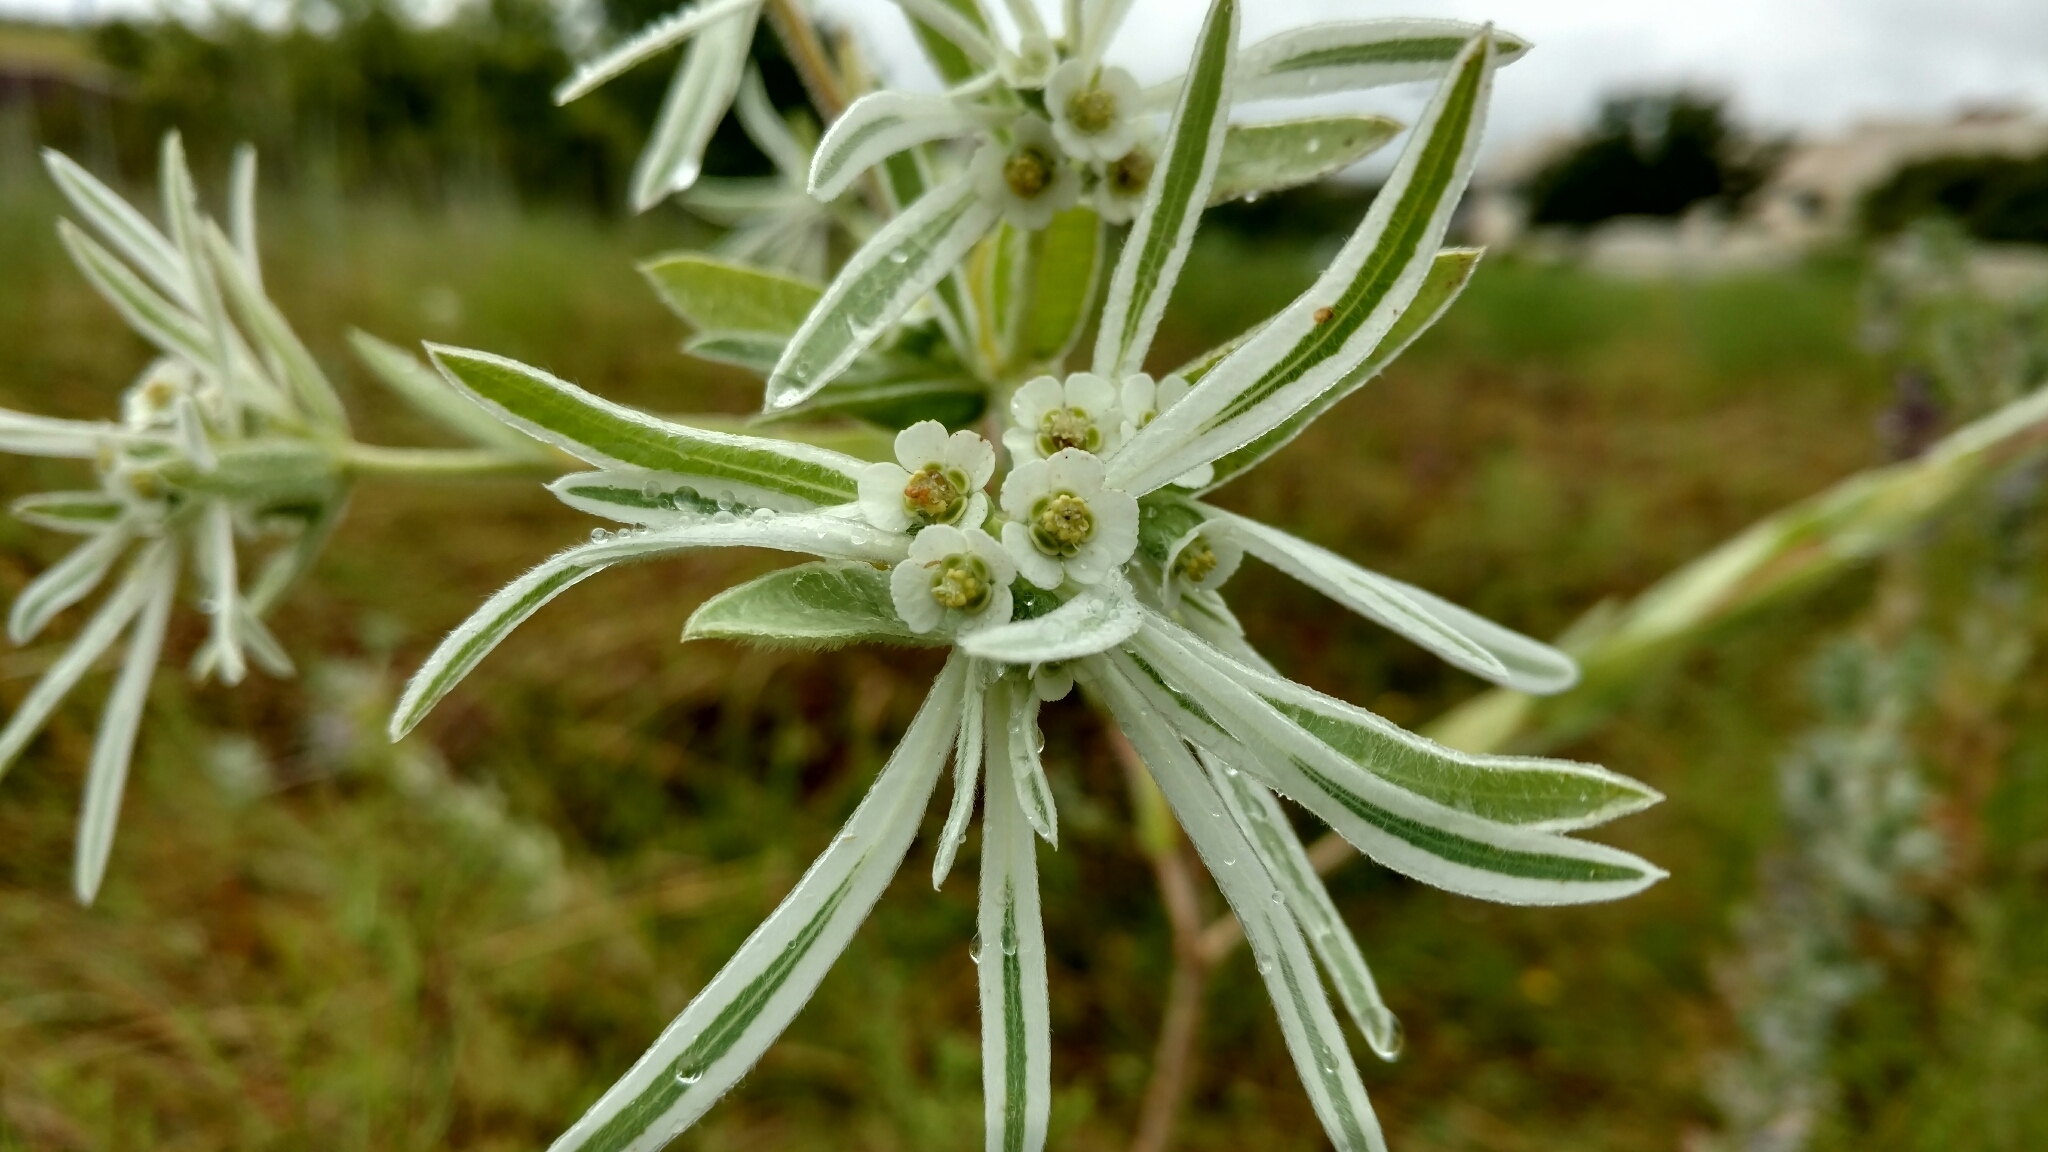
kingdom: Plantae
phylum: Tracheophyta
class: Magnoliopsida
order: Malpighiales
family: Euphorbiaceae
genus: Euphorbia
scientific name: Euphorbia bicolor
